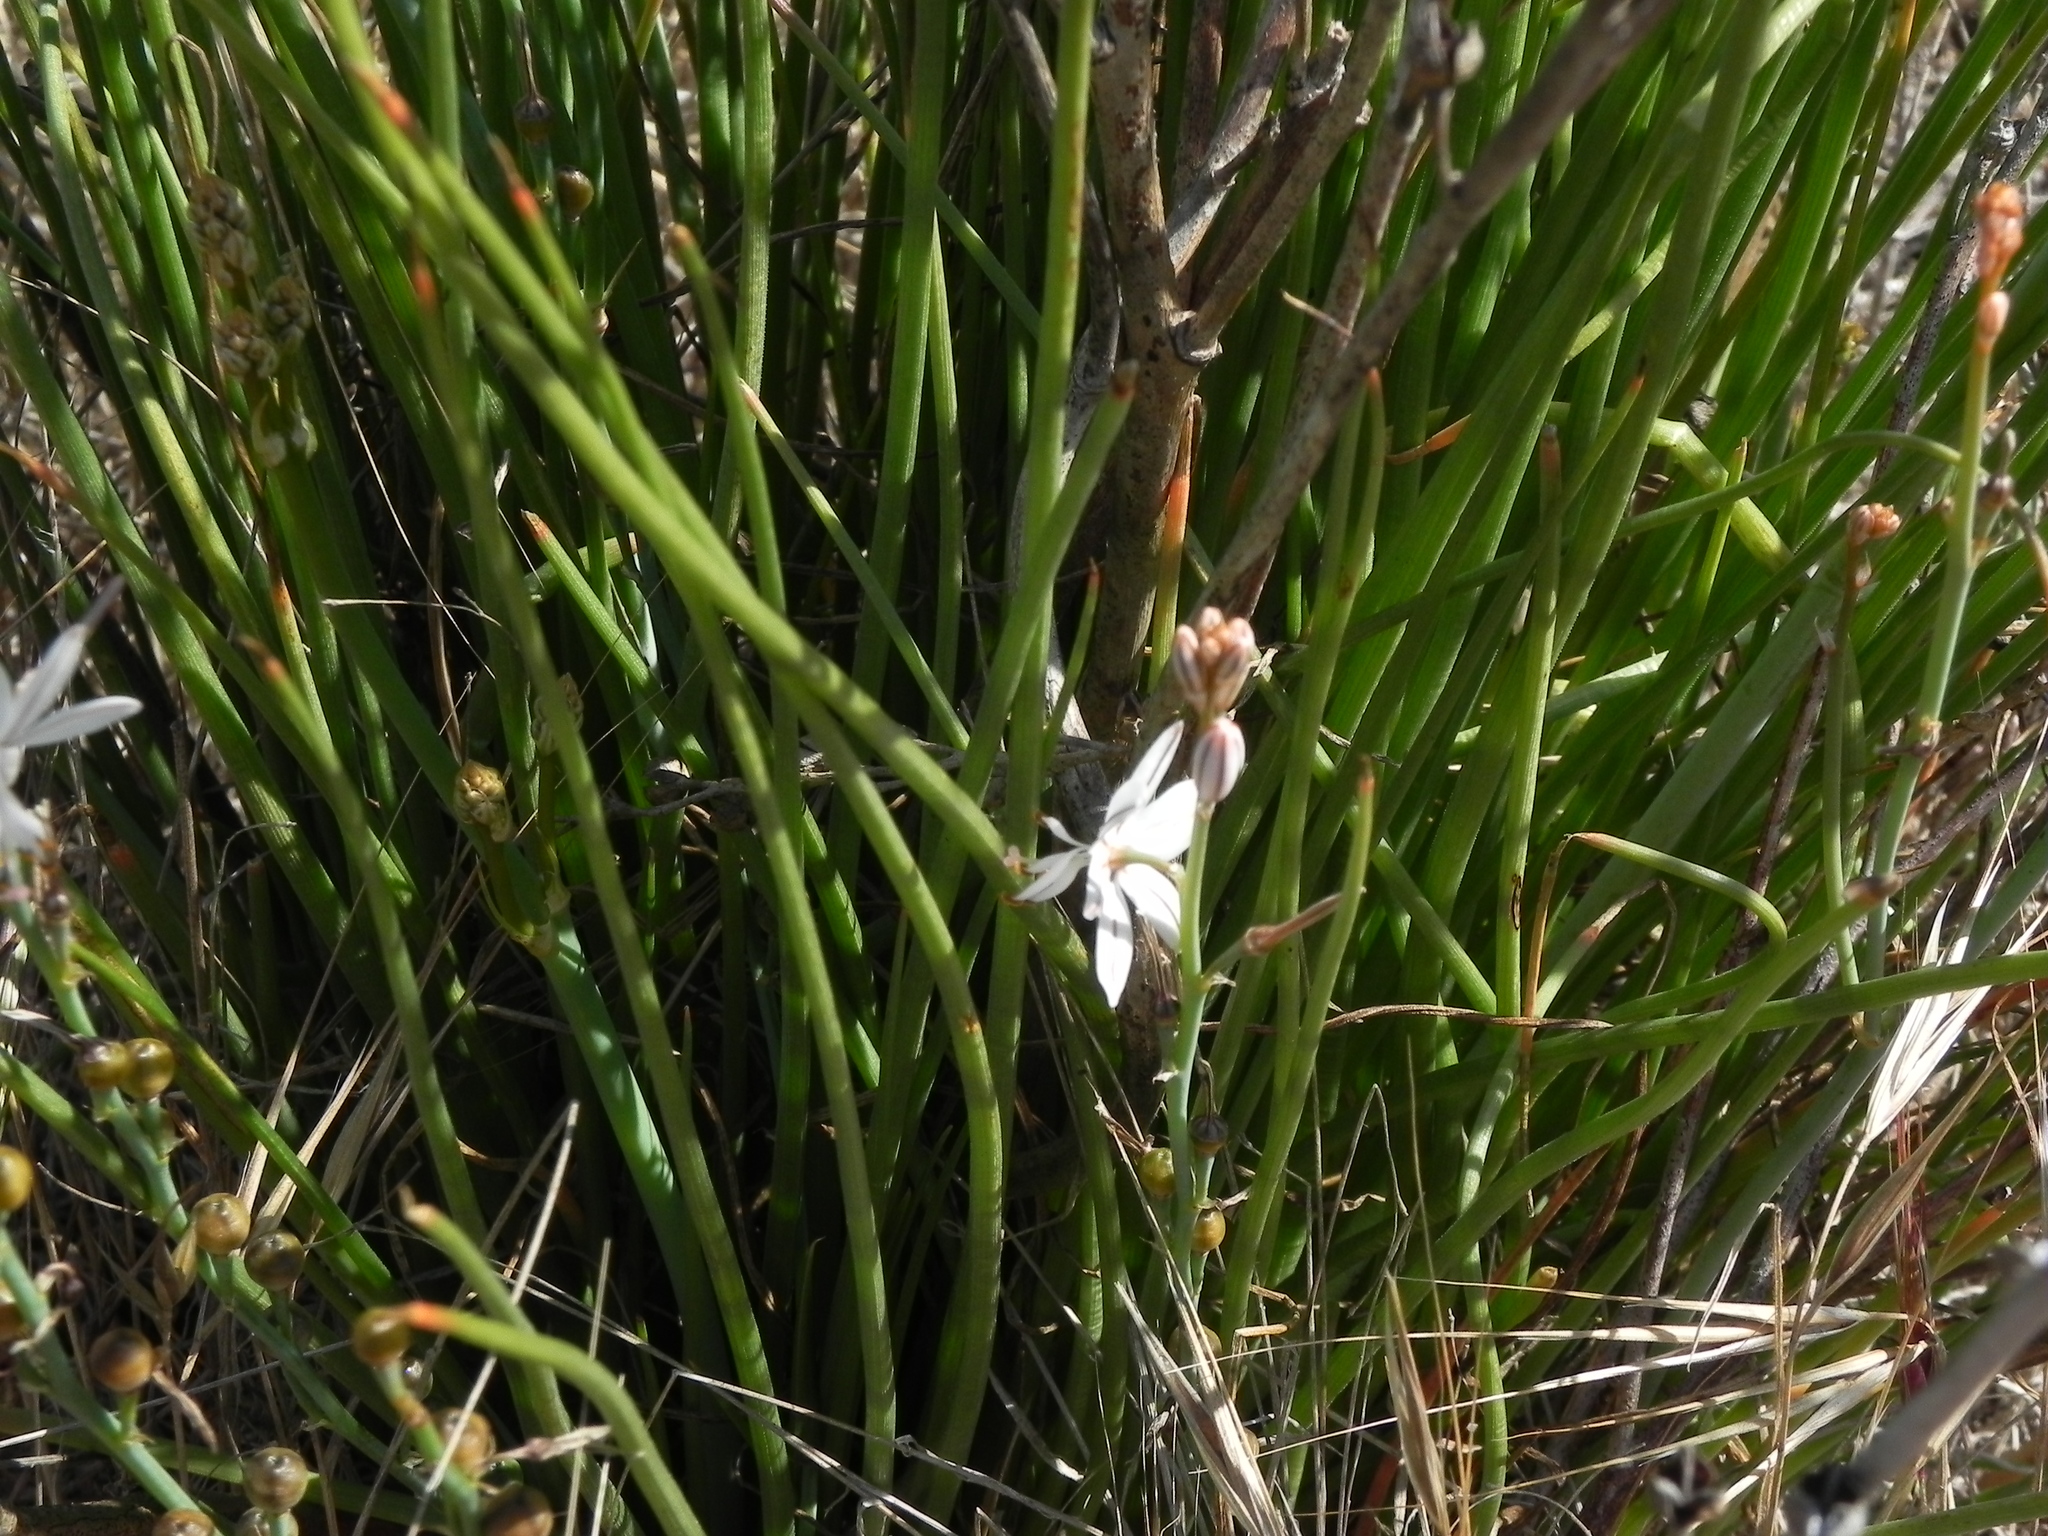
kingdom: Plantae
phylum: Tracheophyta
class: Liliopsida
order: Asparagales
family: Asphodelaceae
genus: Asphodelus
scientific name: Asphodelus fistulosus
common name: Onionweed
